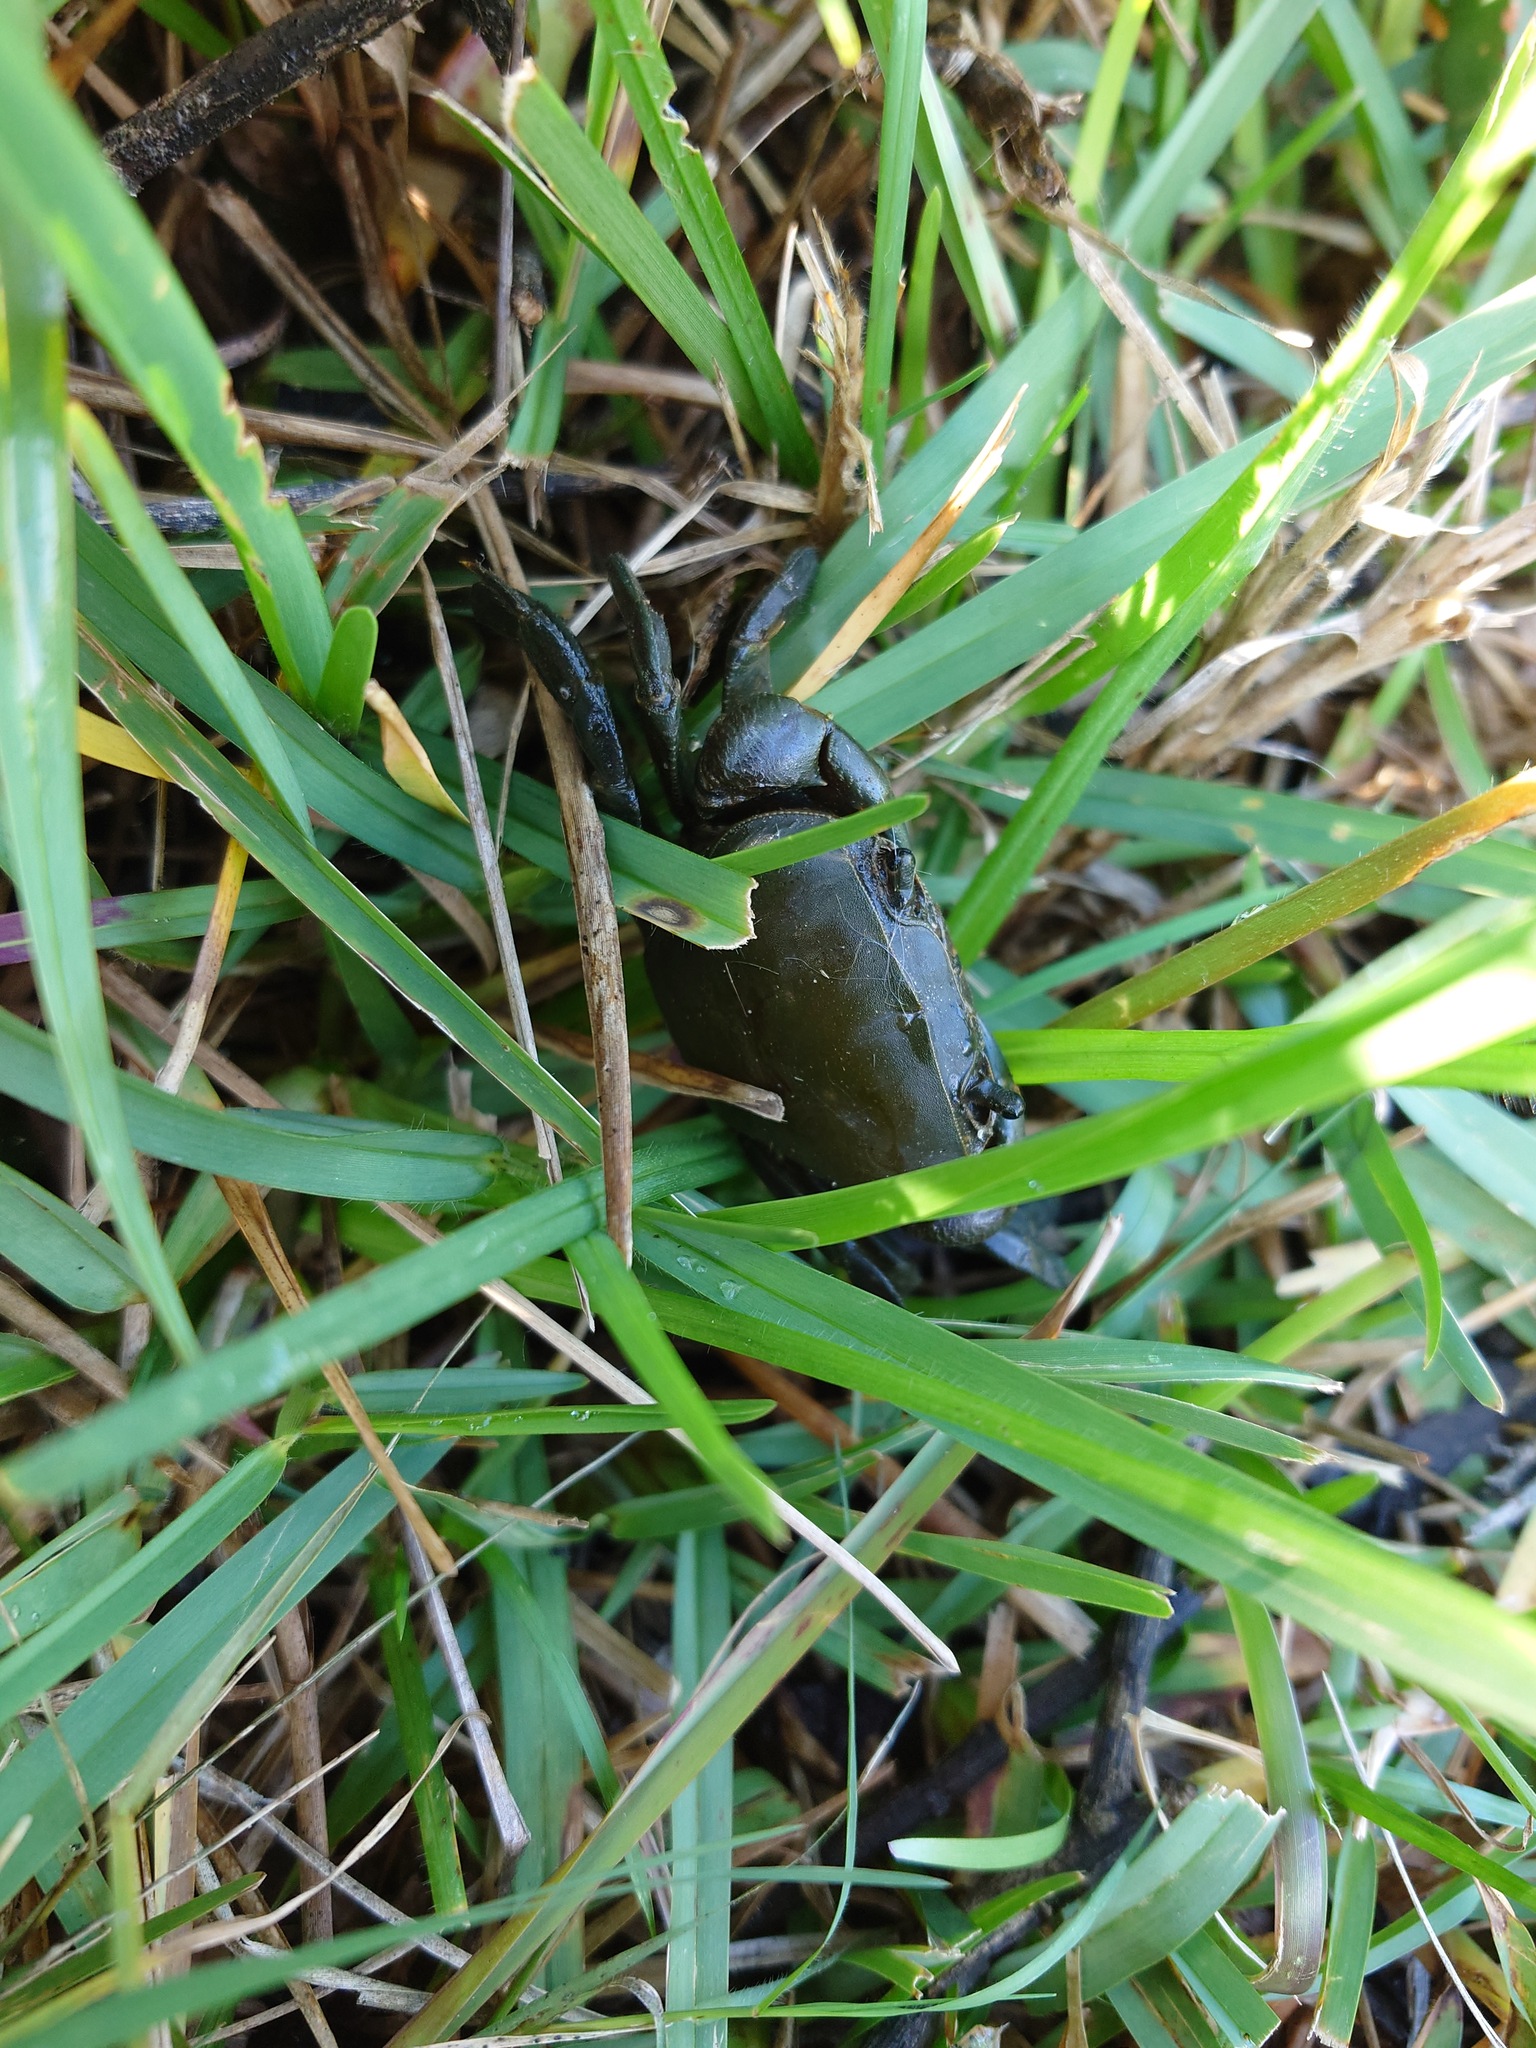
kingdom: Animalia
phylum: Arthropoda
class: Malacostraca
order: Decapoda
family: Potamonautidae
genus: Potamonautes
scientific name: Potamonautes perlatus
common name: Cape river crab
